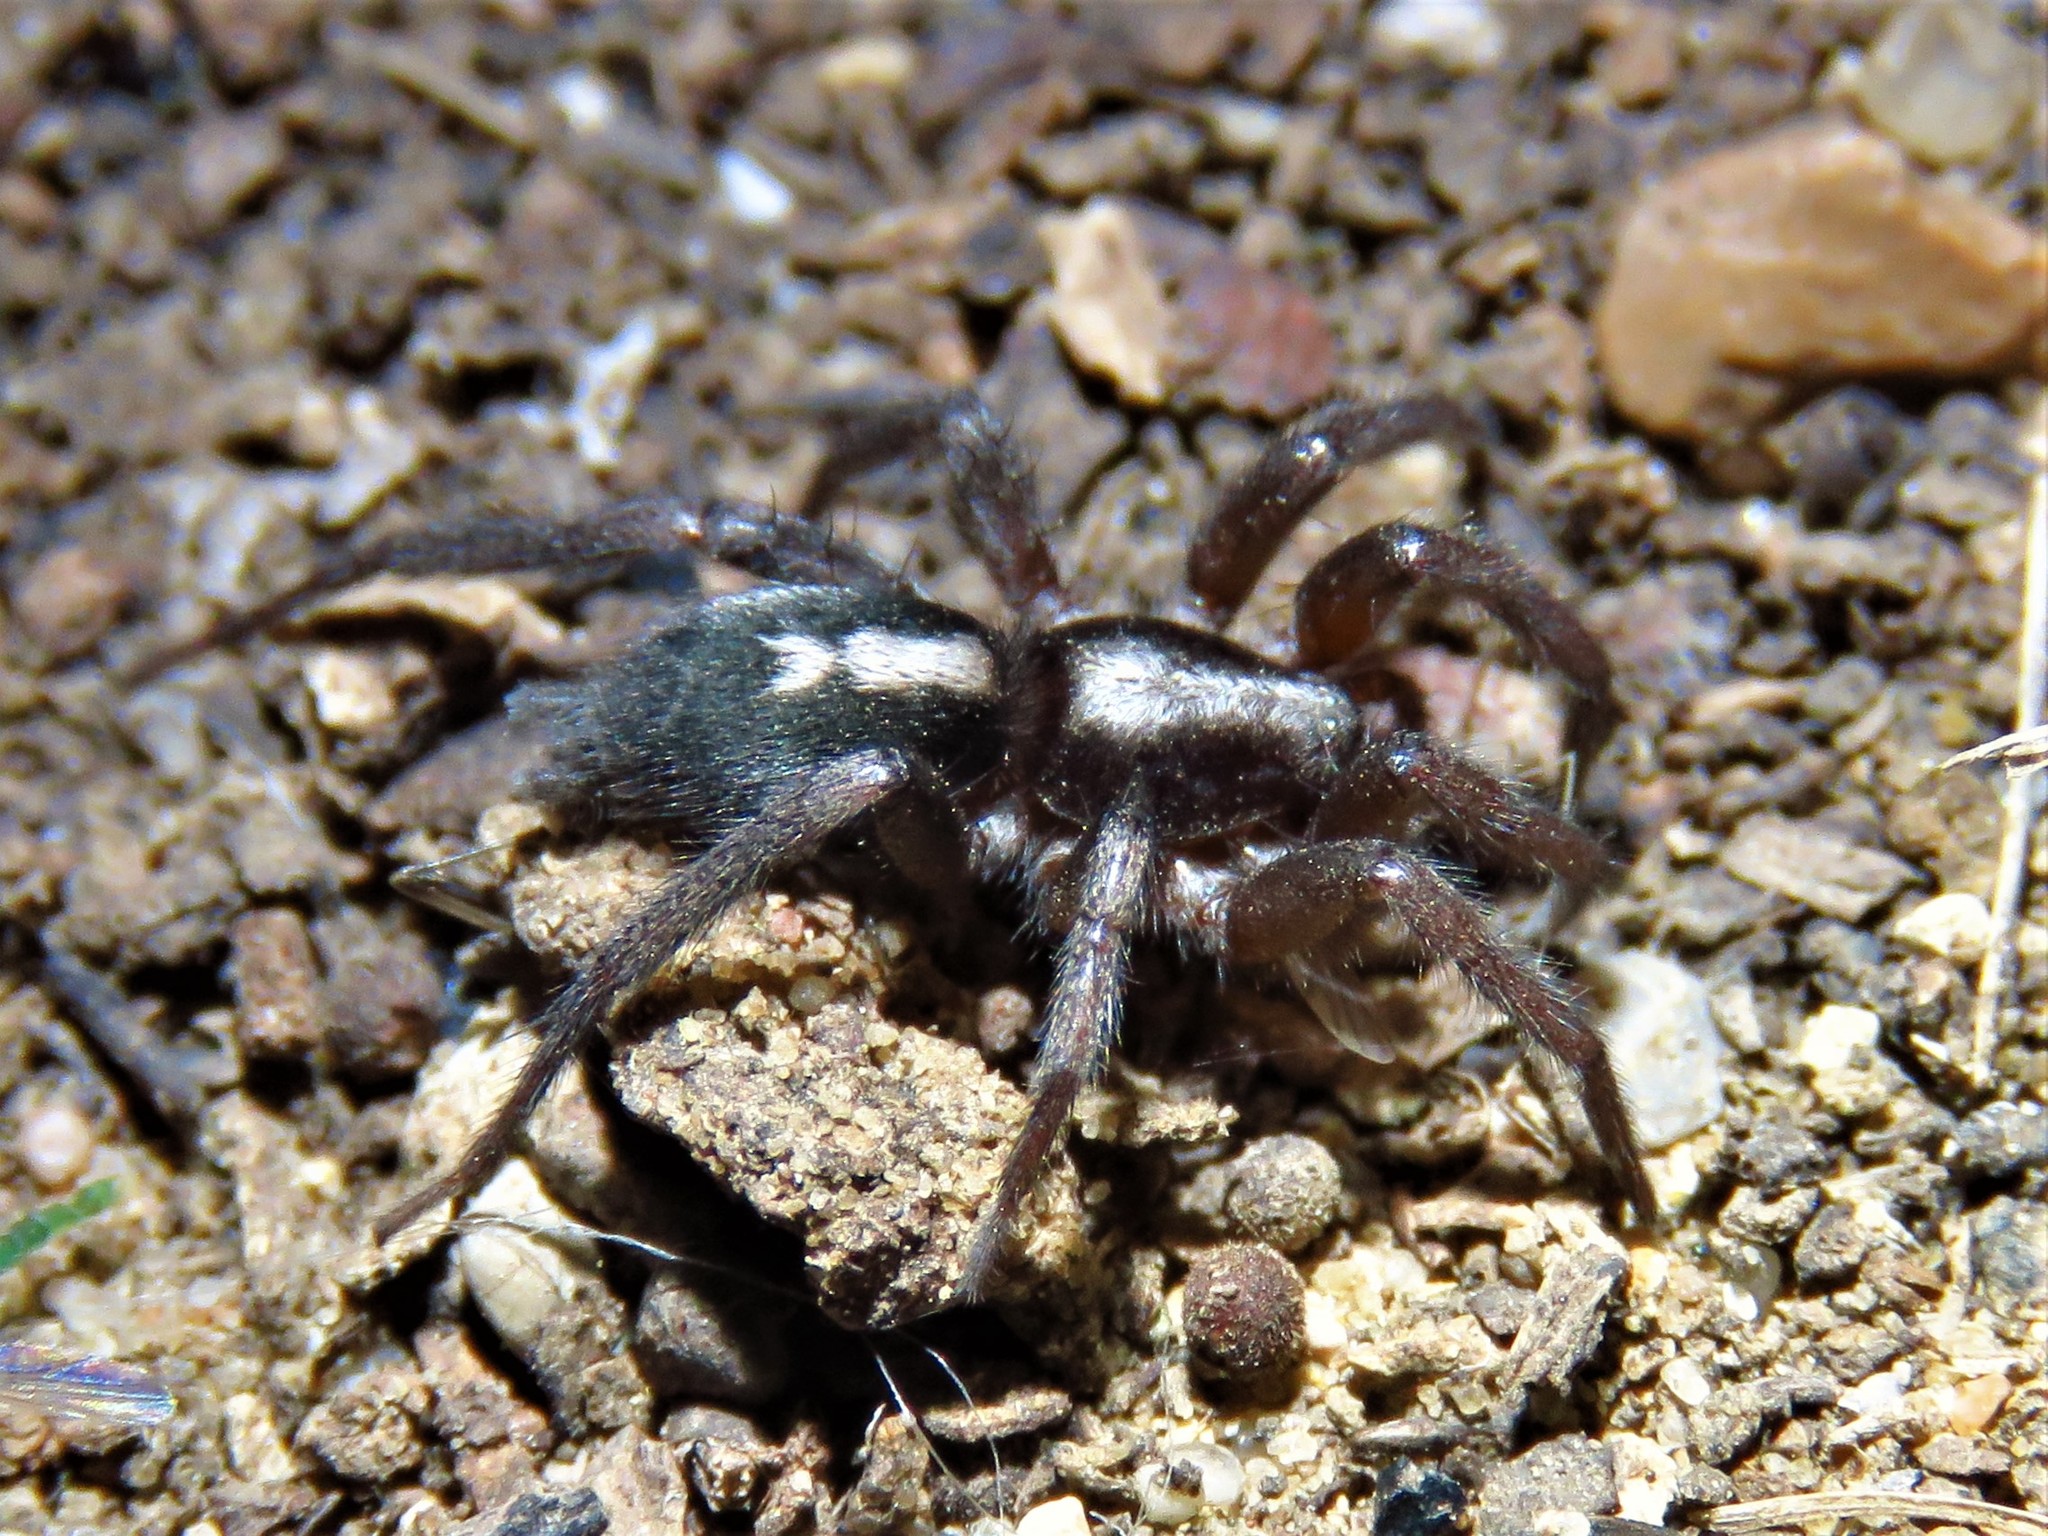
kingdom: Animalia
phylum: Arthropoda
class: Arachnida
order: Araneae
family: Gnaphosidae
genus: Herpyllus
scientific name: Herpyllus ecclesiasticus
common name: Eastern parson spider
